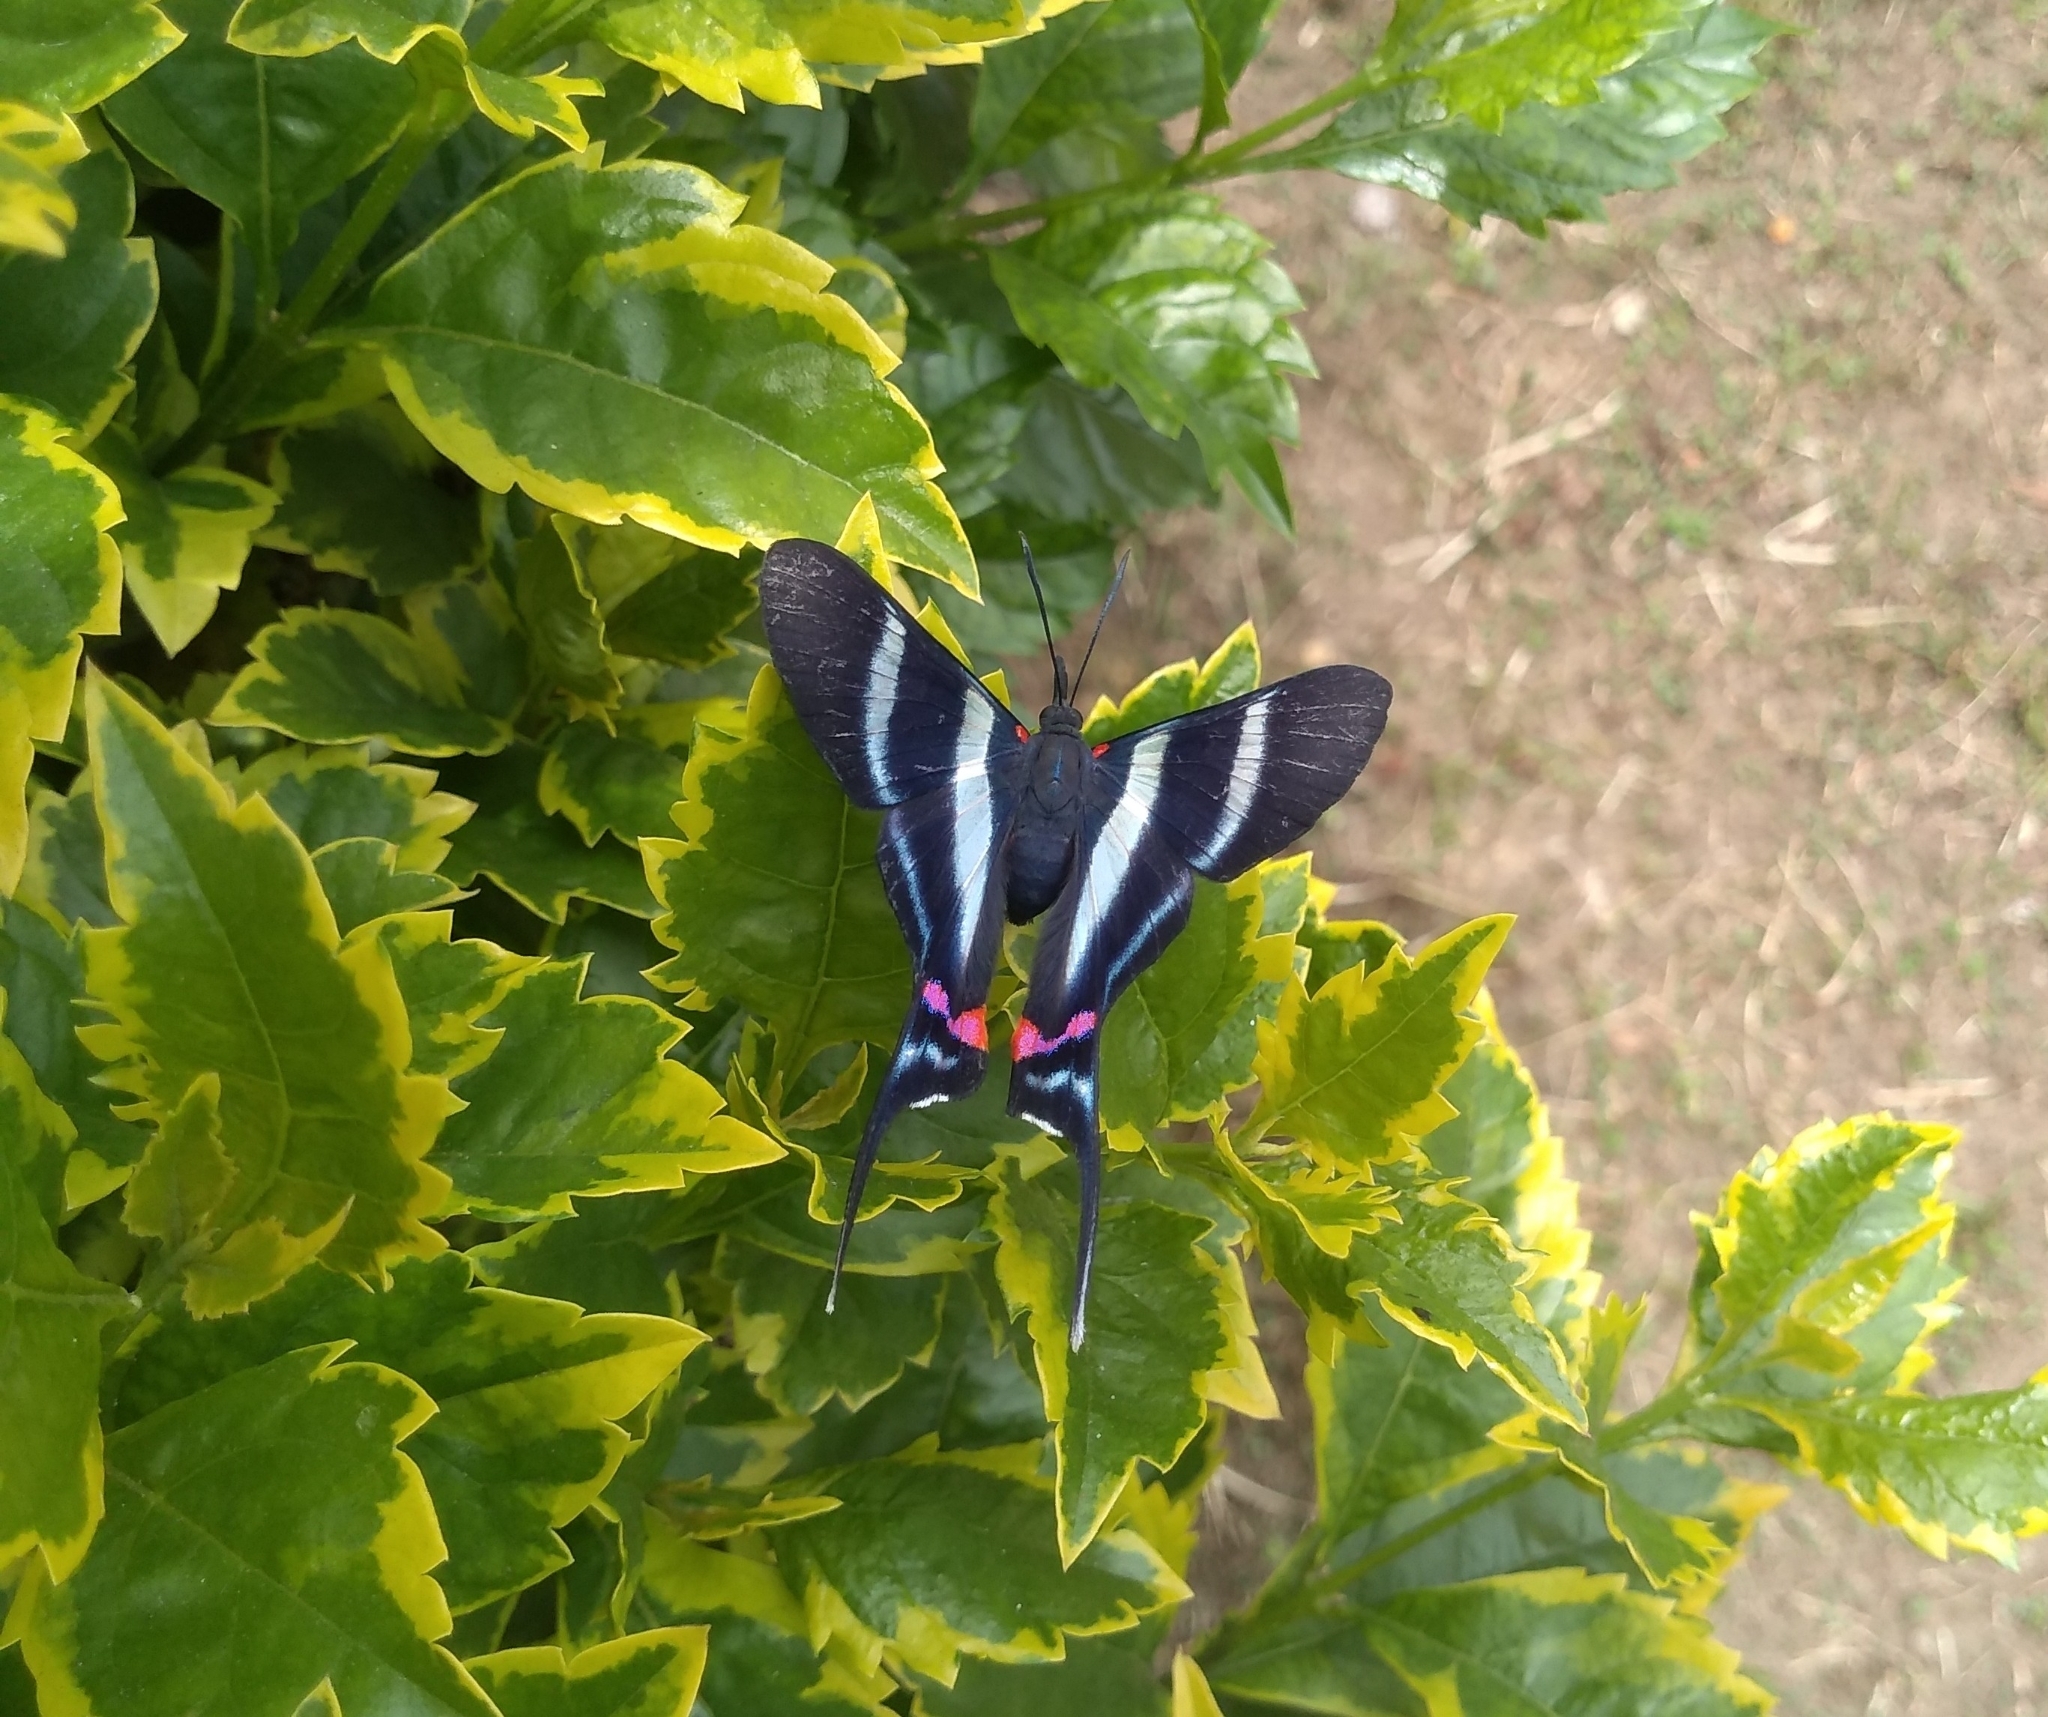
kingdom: Animalia
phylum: Arthropoda
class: Insecta
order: Lepidoptera
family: Riodinidae
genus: Rhetus
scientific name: Rhetus arcius
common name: Long-tailed metalmark
